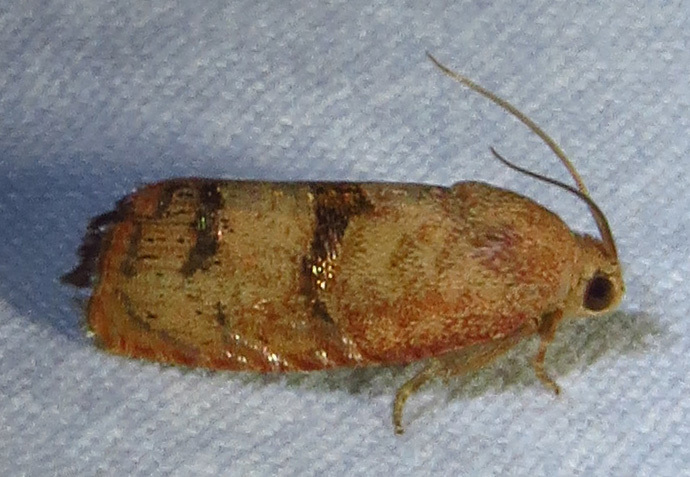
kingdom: Animalia
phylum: Arthropoda
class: Insecta
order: Lepidoptera
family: Tortricidae
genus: Cydia
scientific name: Cydia latiferreana
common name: Filbertworm moth
